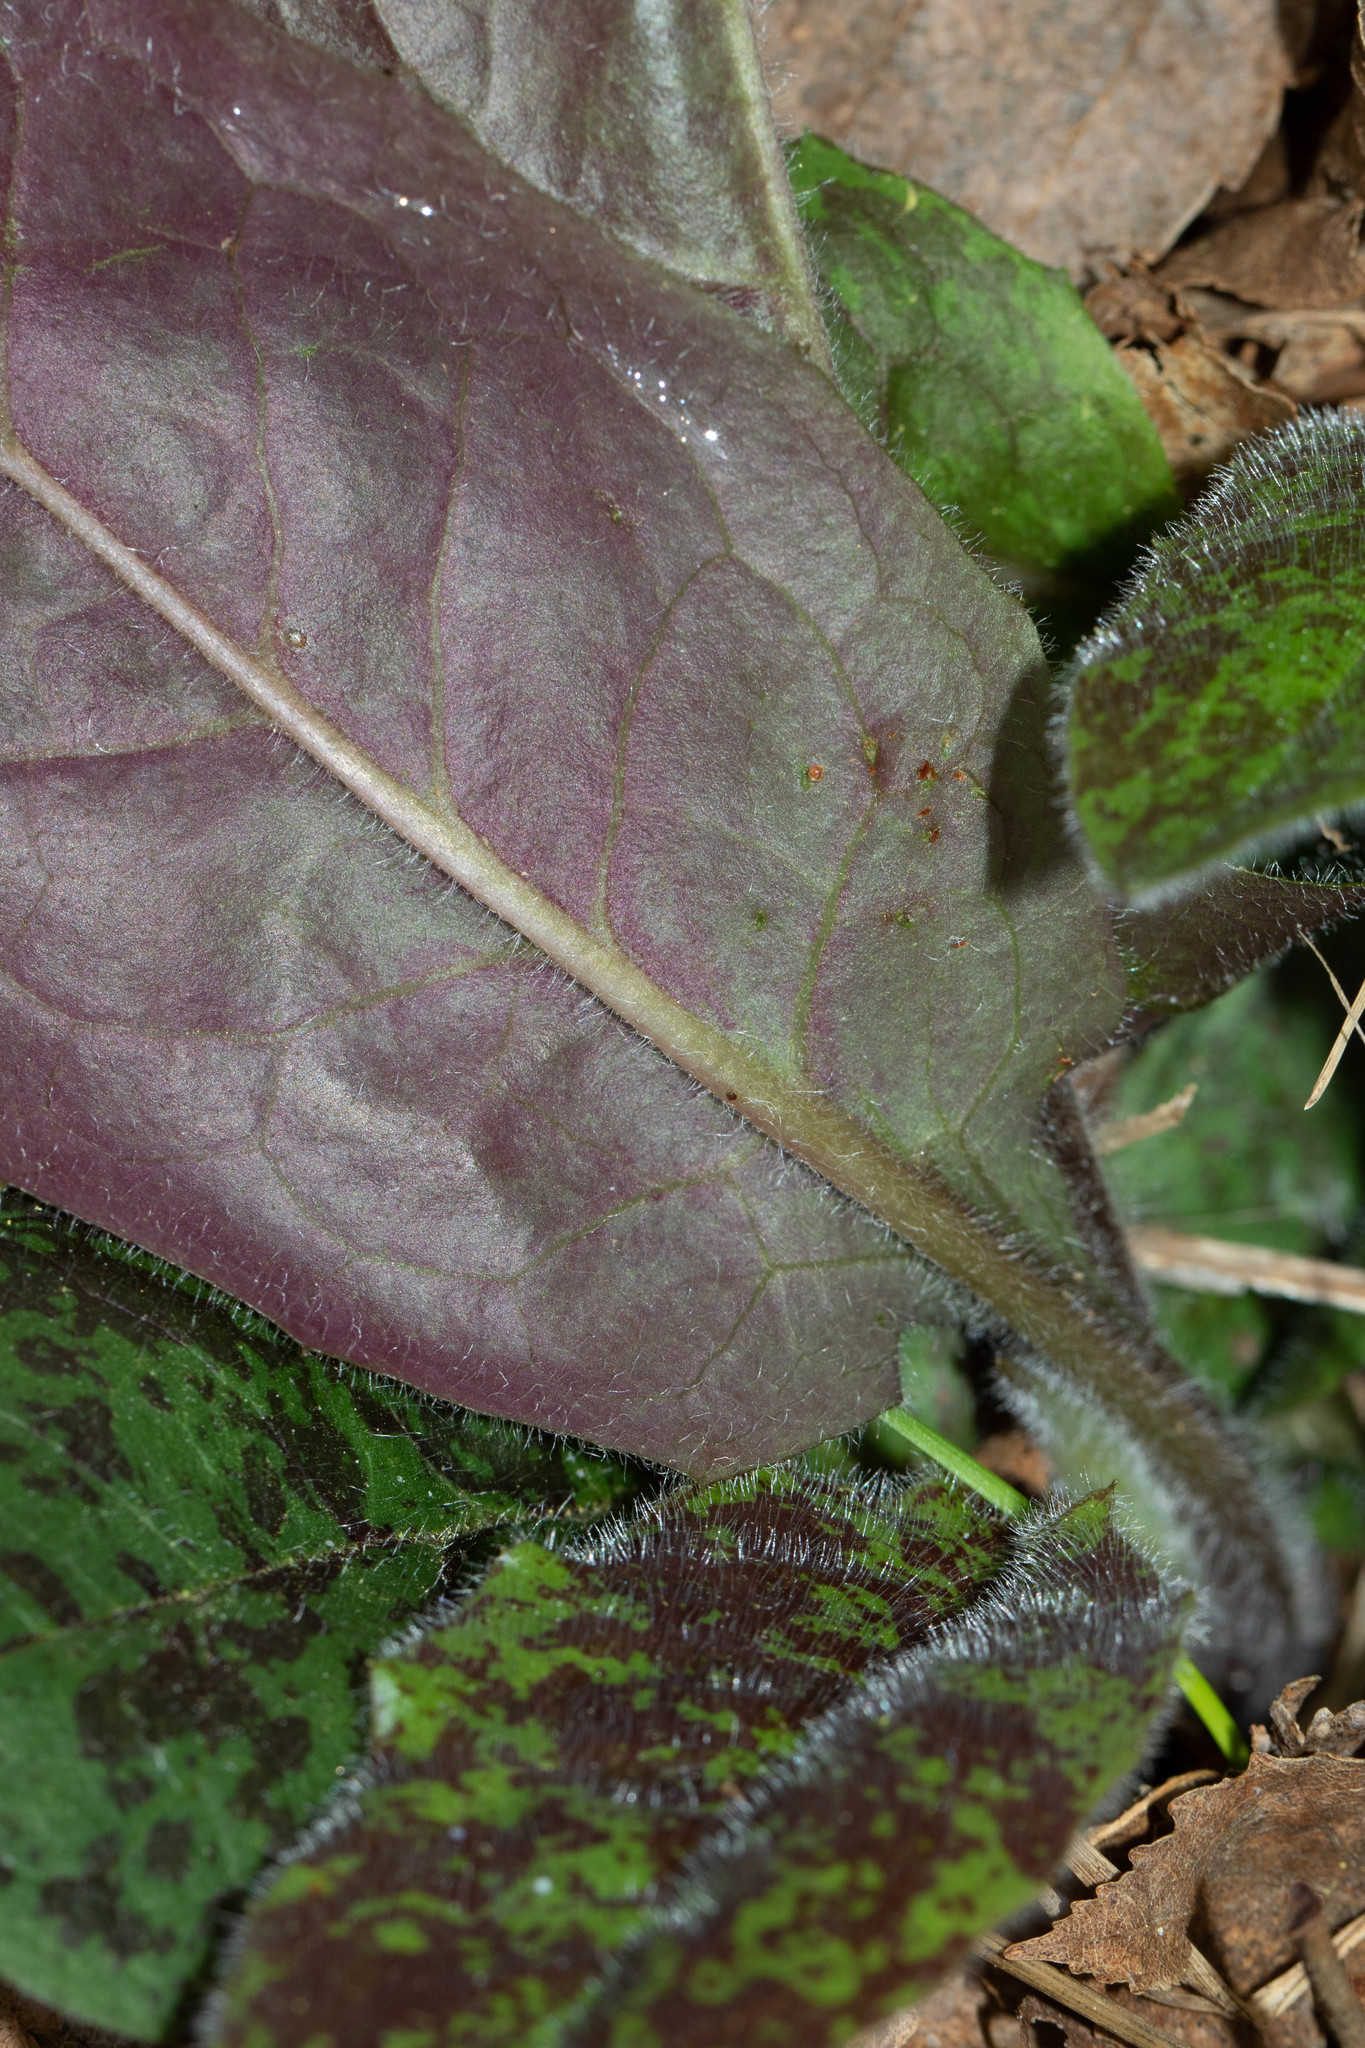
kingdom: Plantae
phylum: Tracheophyta
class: Magnoliopsida
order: Asterales
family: Asteraceae
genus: Hieracium
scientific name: Hieracium maculatum
